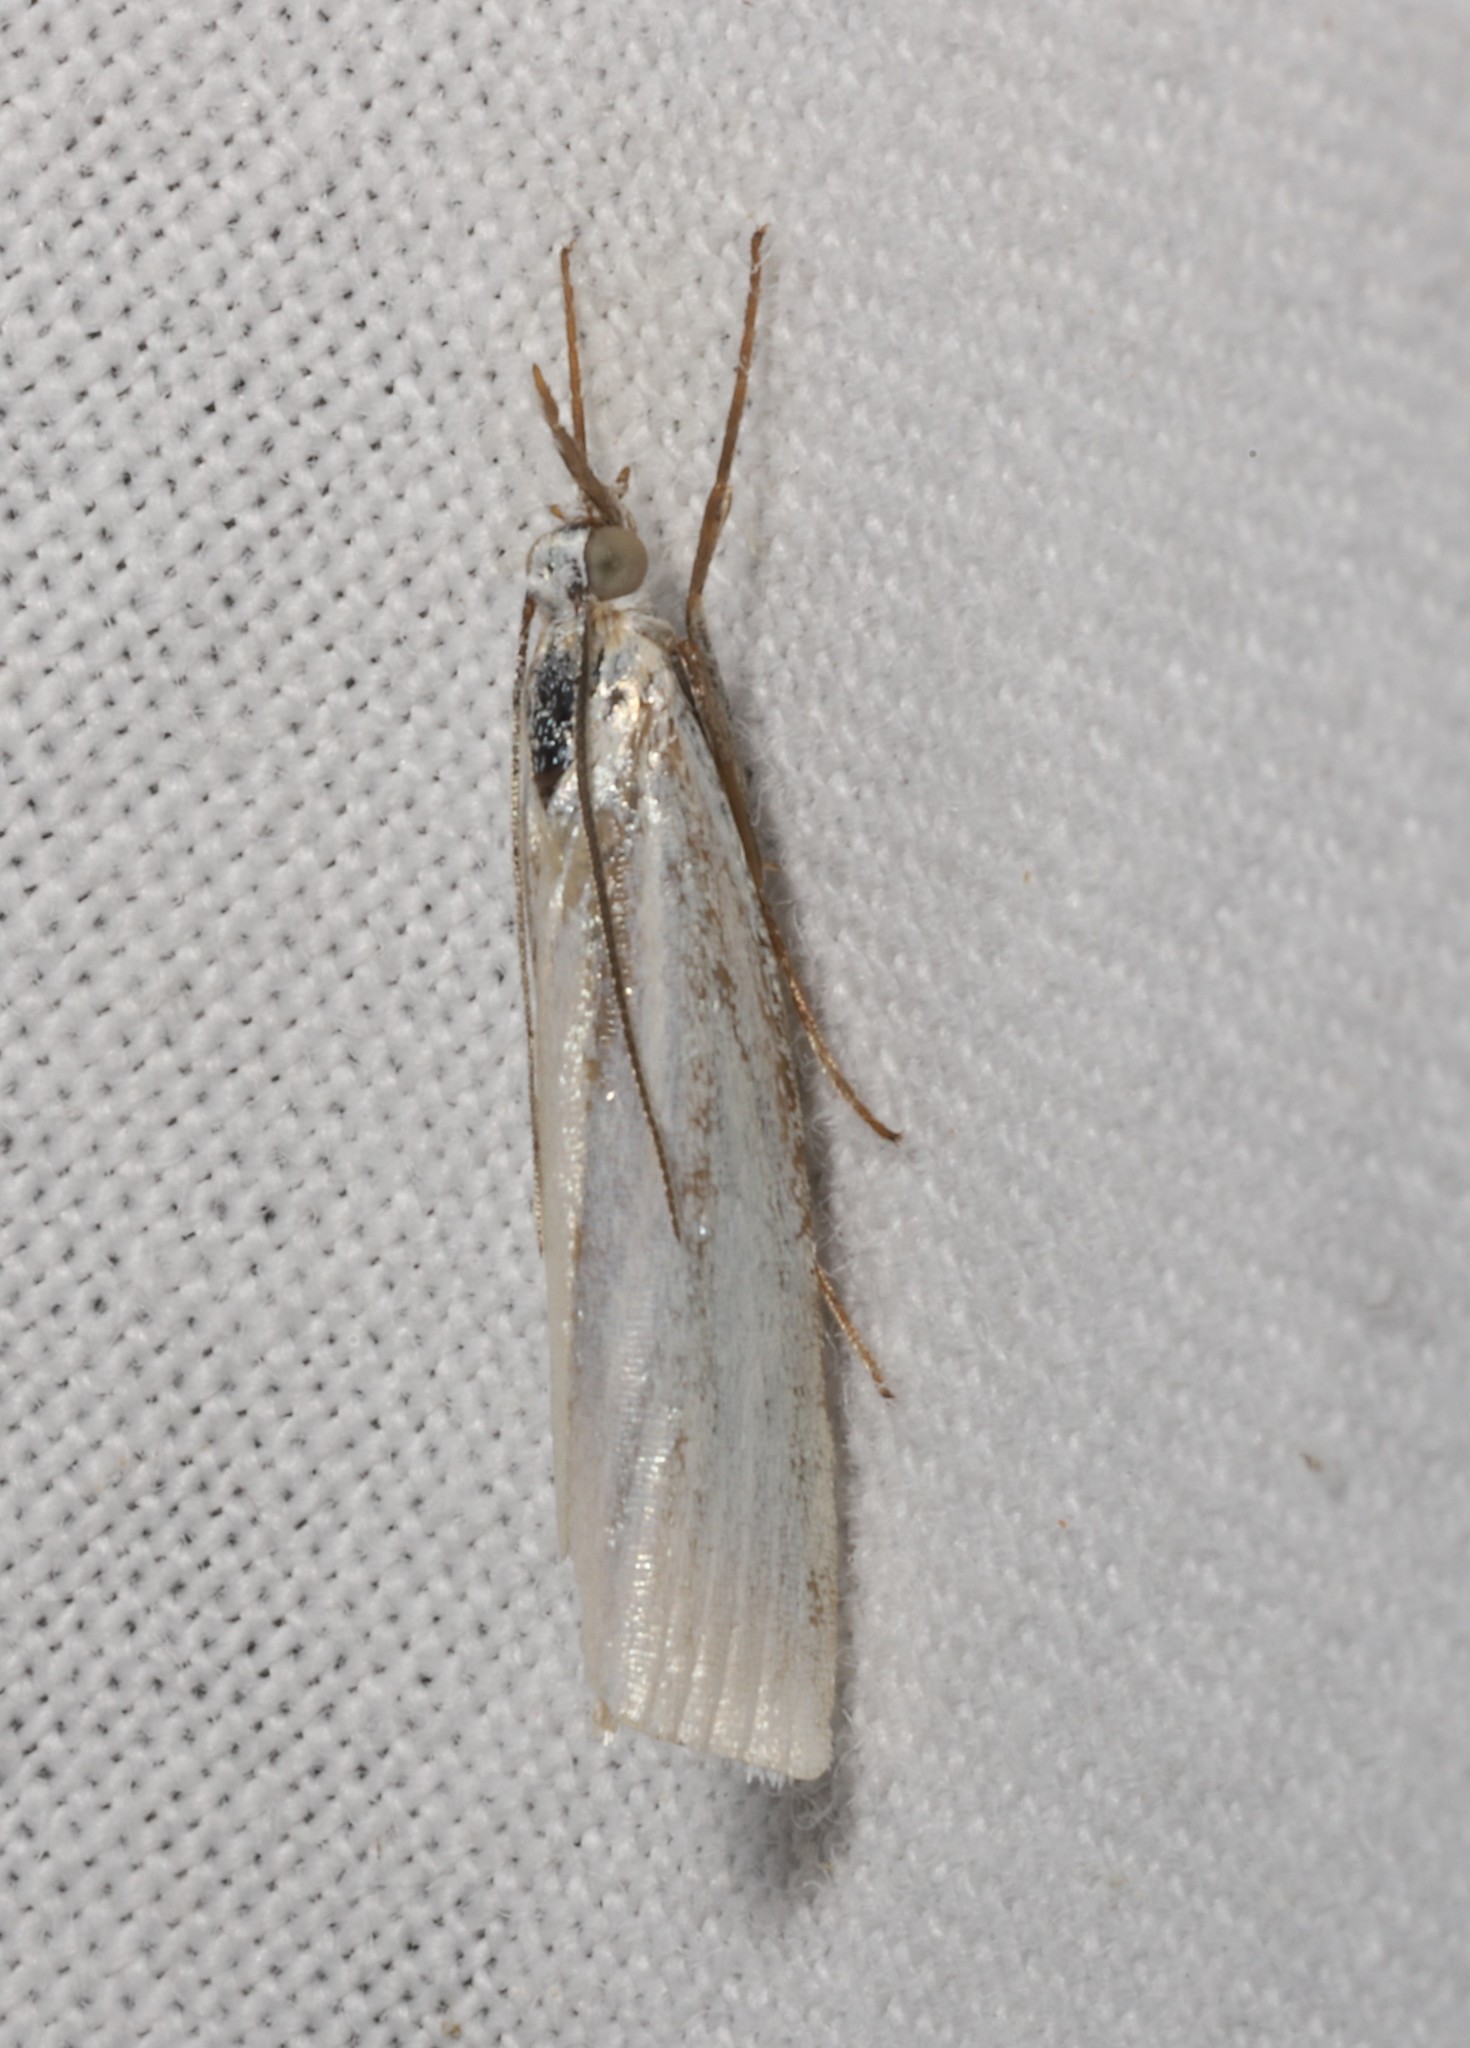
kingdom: Animalia
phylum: Arthropoda
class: Insecta
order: Lepidoptera
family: Crambidae
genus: Crambus
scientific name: Crambus perlellus
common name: Yellow satin veneer
